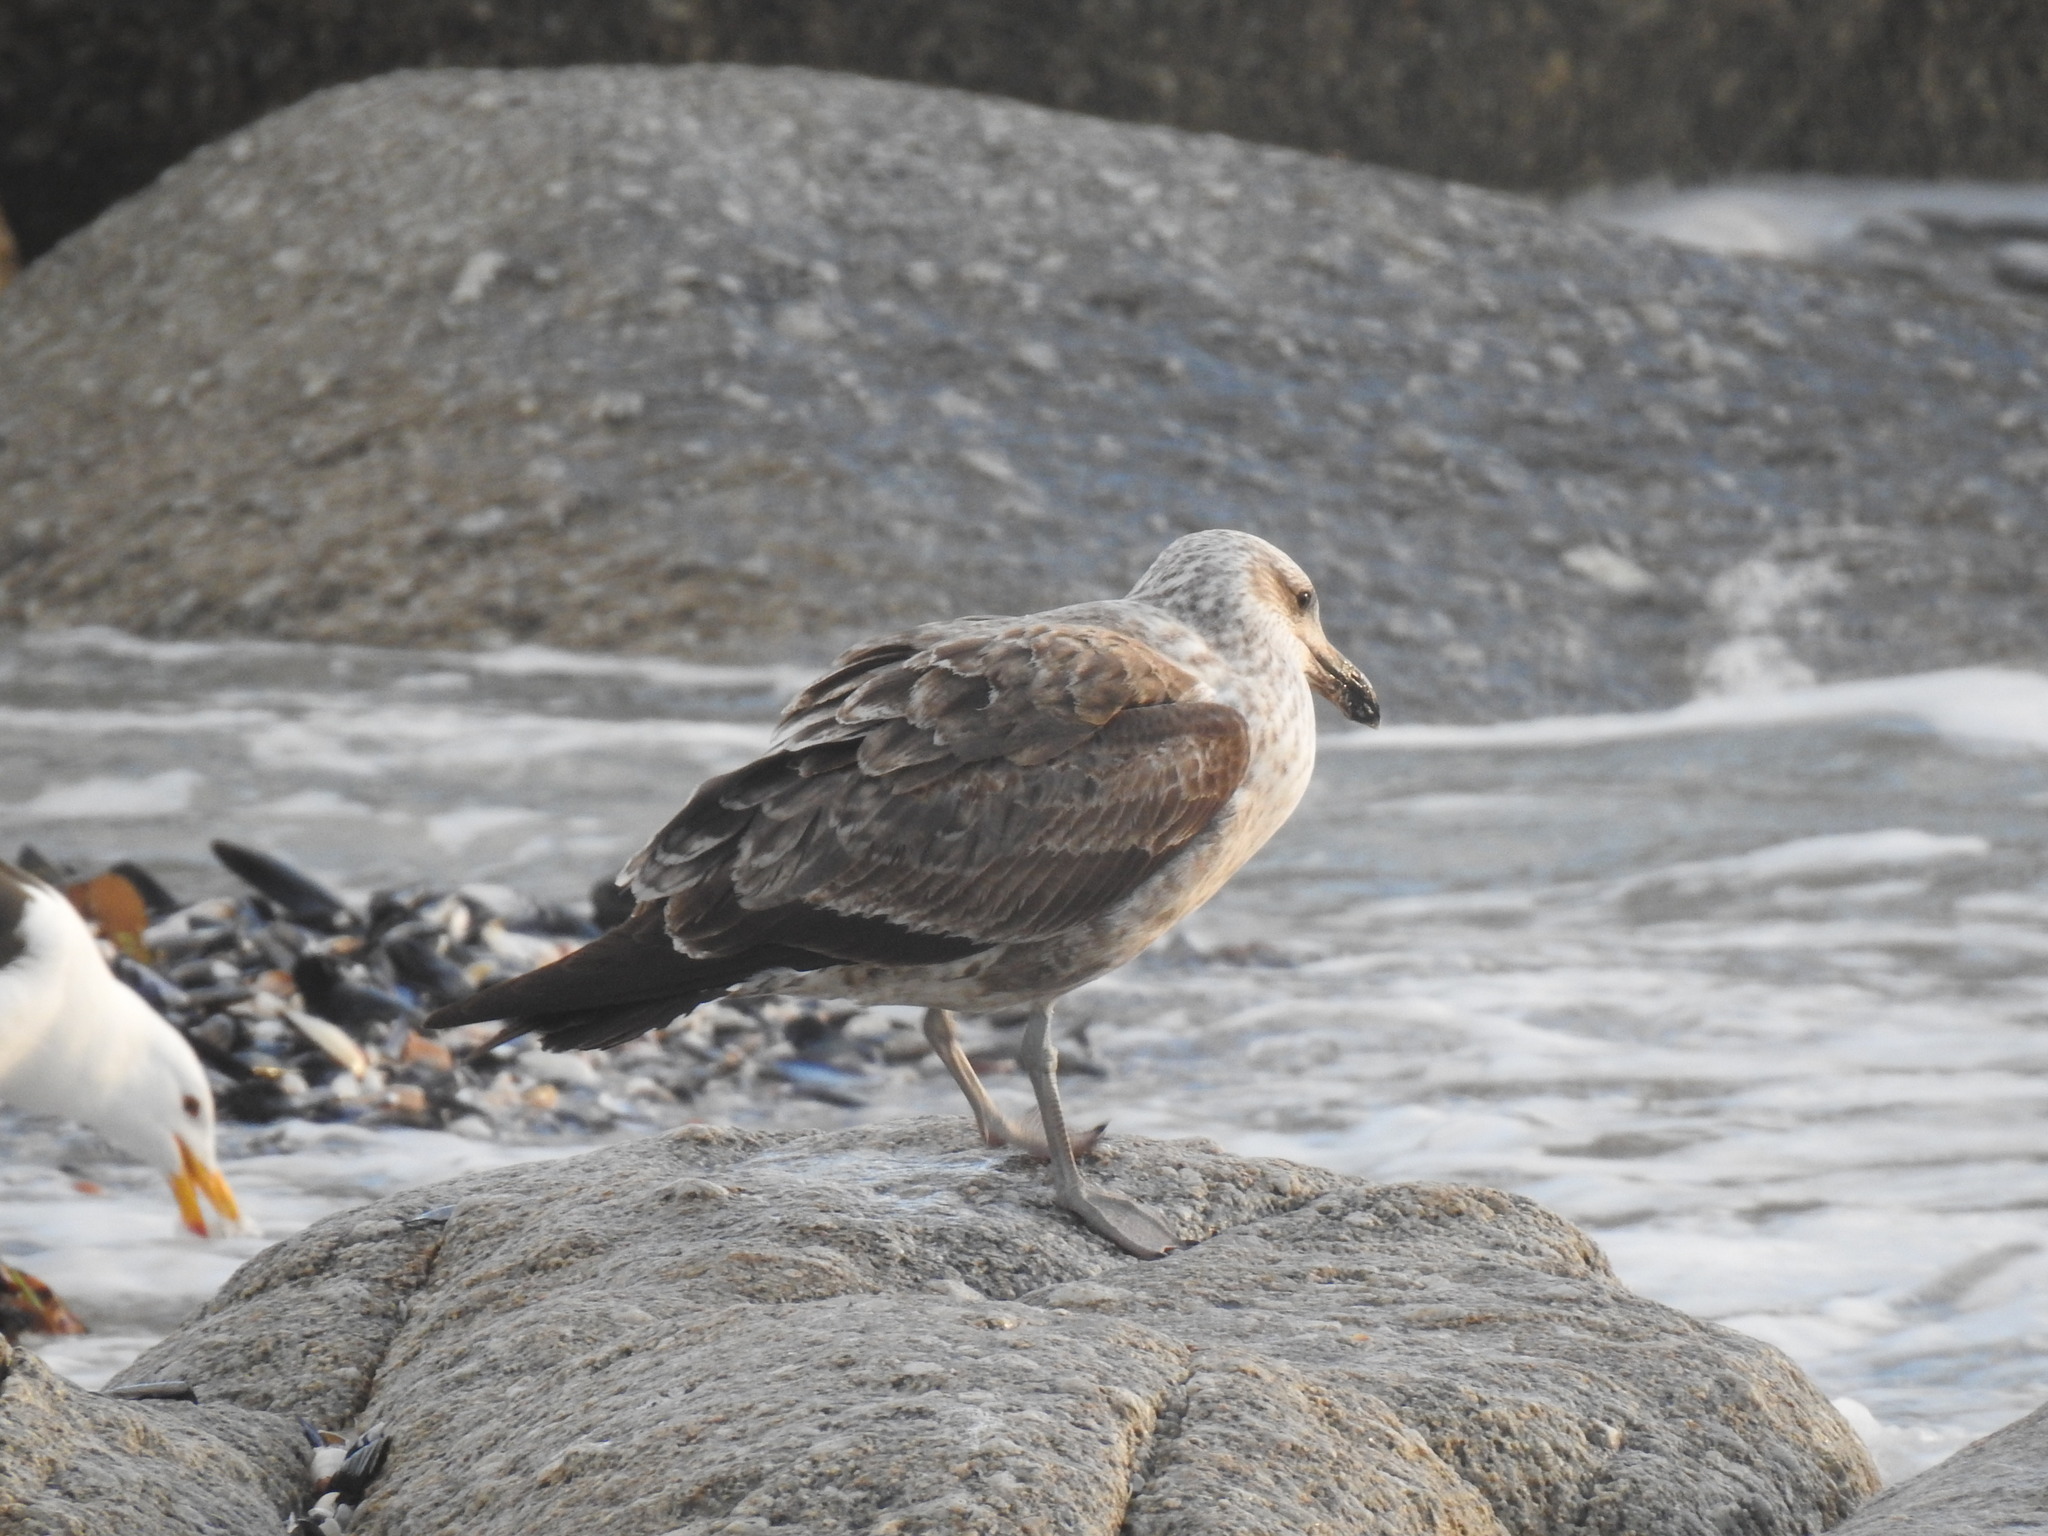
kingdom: Animalia
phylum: Chordata
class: Aves
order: Charadriiformes
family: Laridae
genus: Larus
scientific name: Larus dominicanus
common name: Kelp gull
